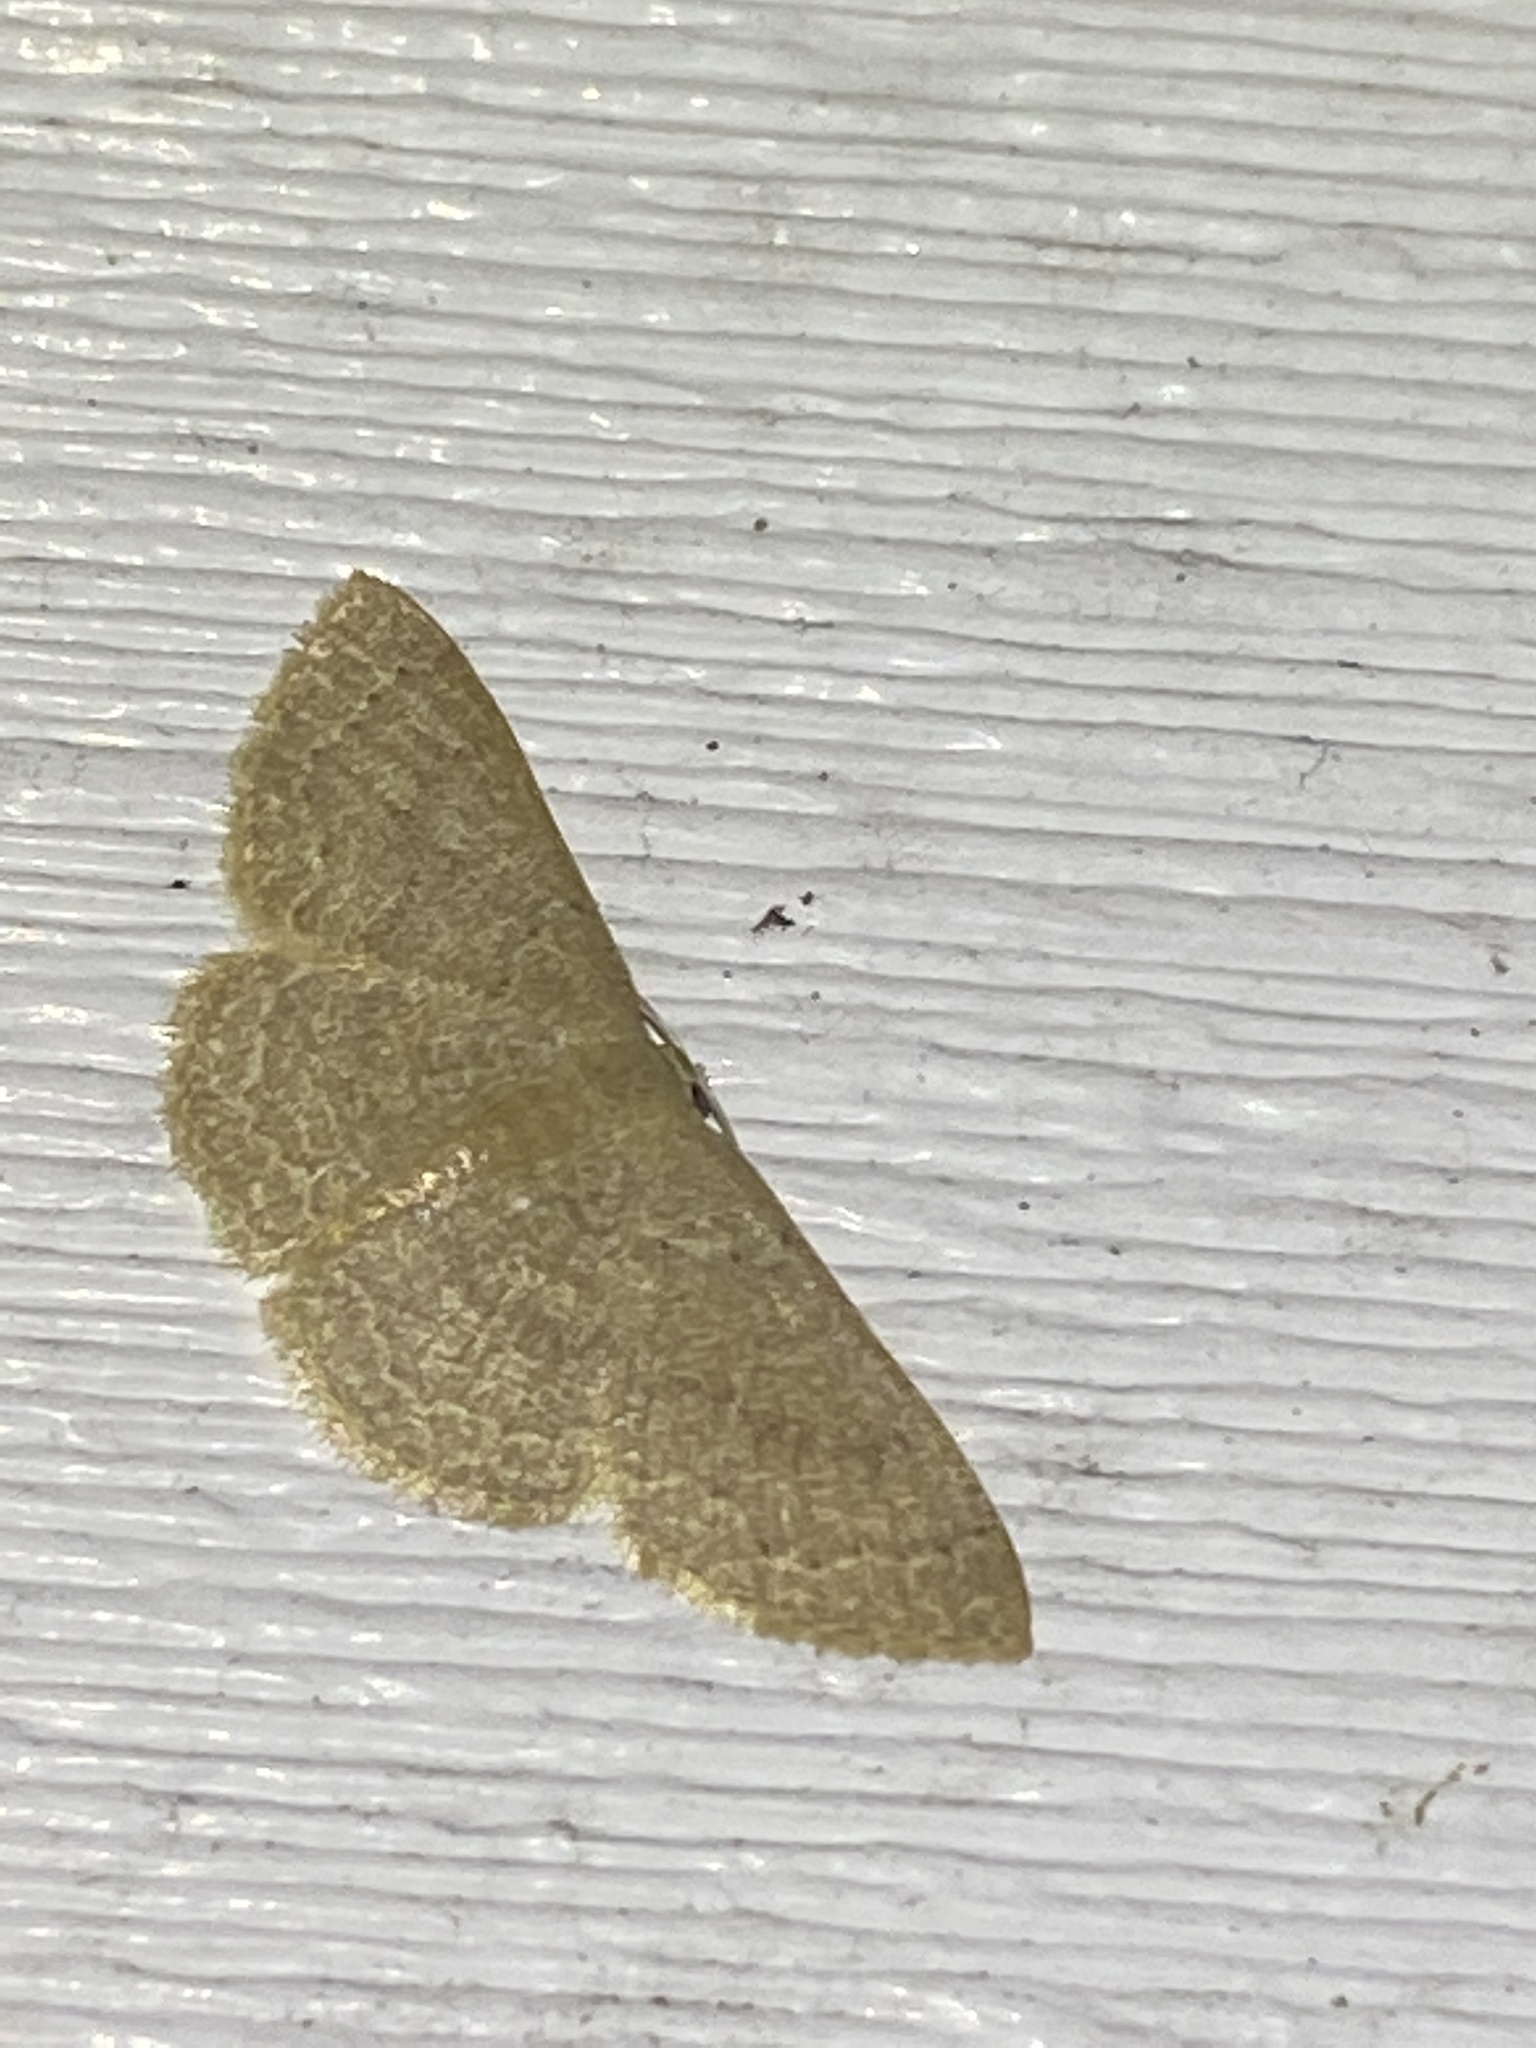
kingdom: Animalia
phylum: Arthropoda
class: Insecta
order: Lepidoptera
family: Geometridae
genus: Pleuroprucha
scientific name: Pleuroprucha insulsaria
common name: Common tan wave
